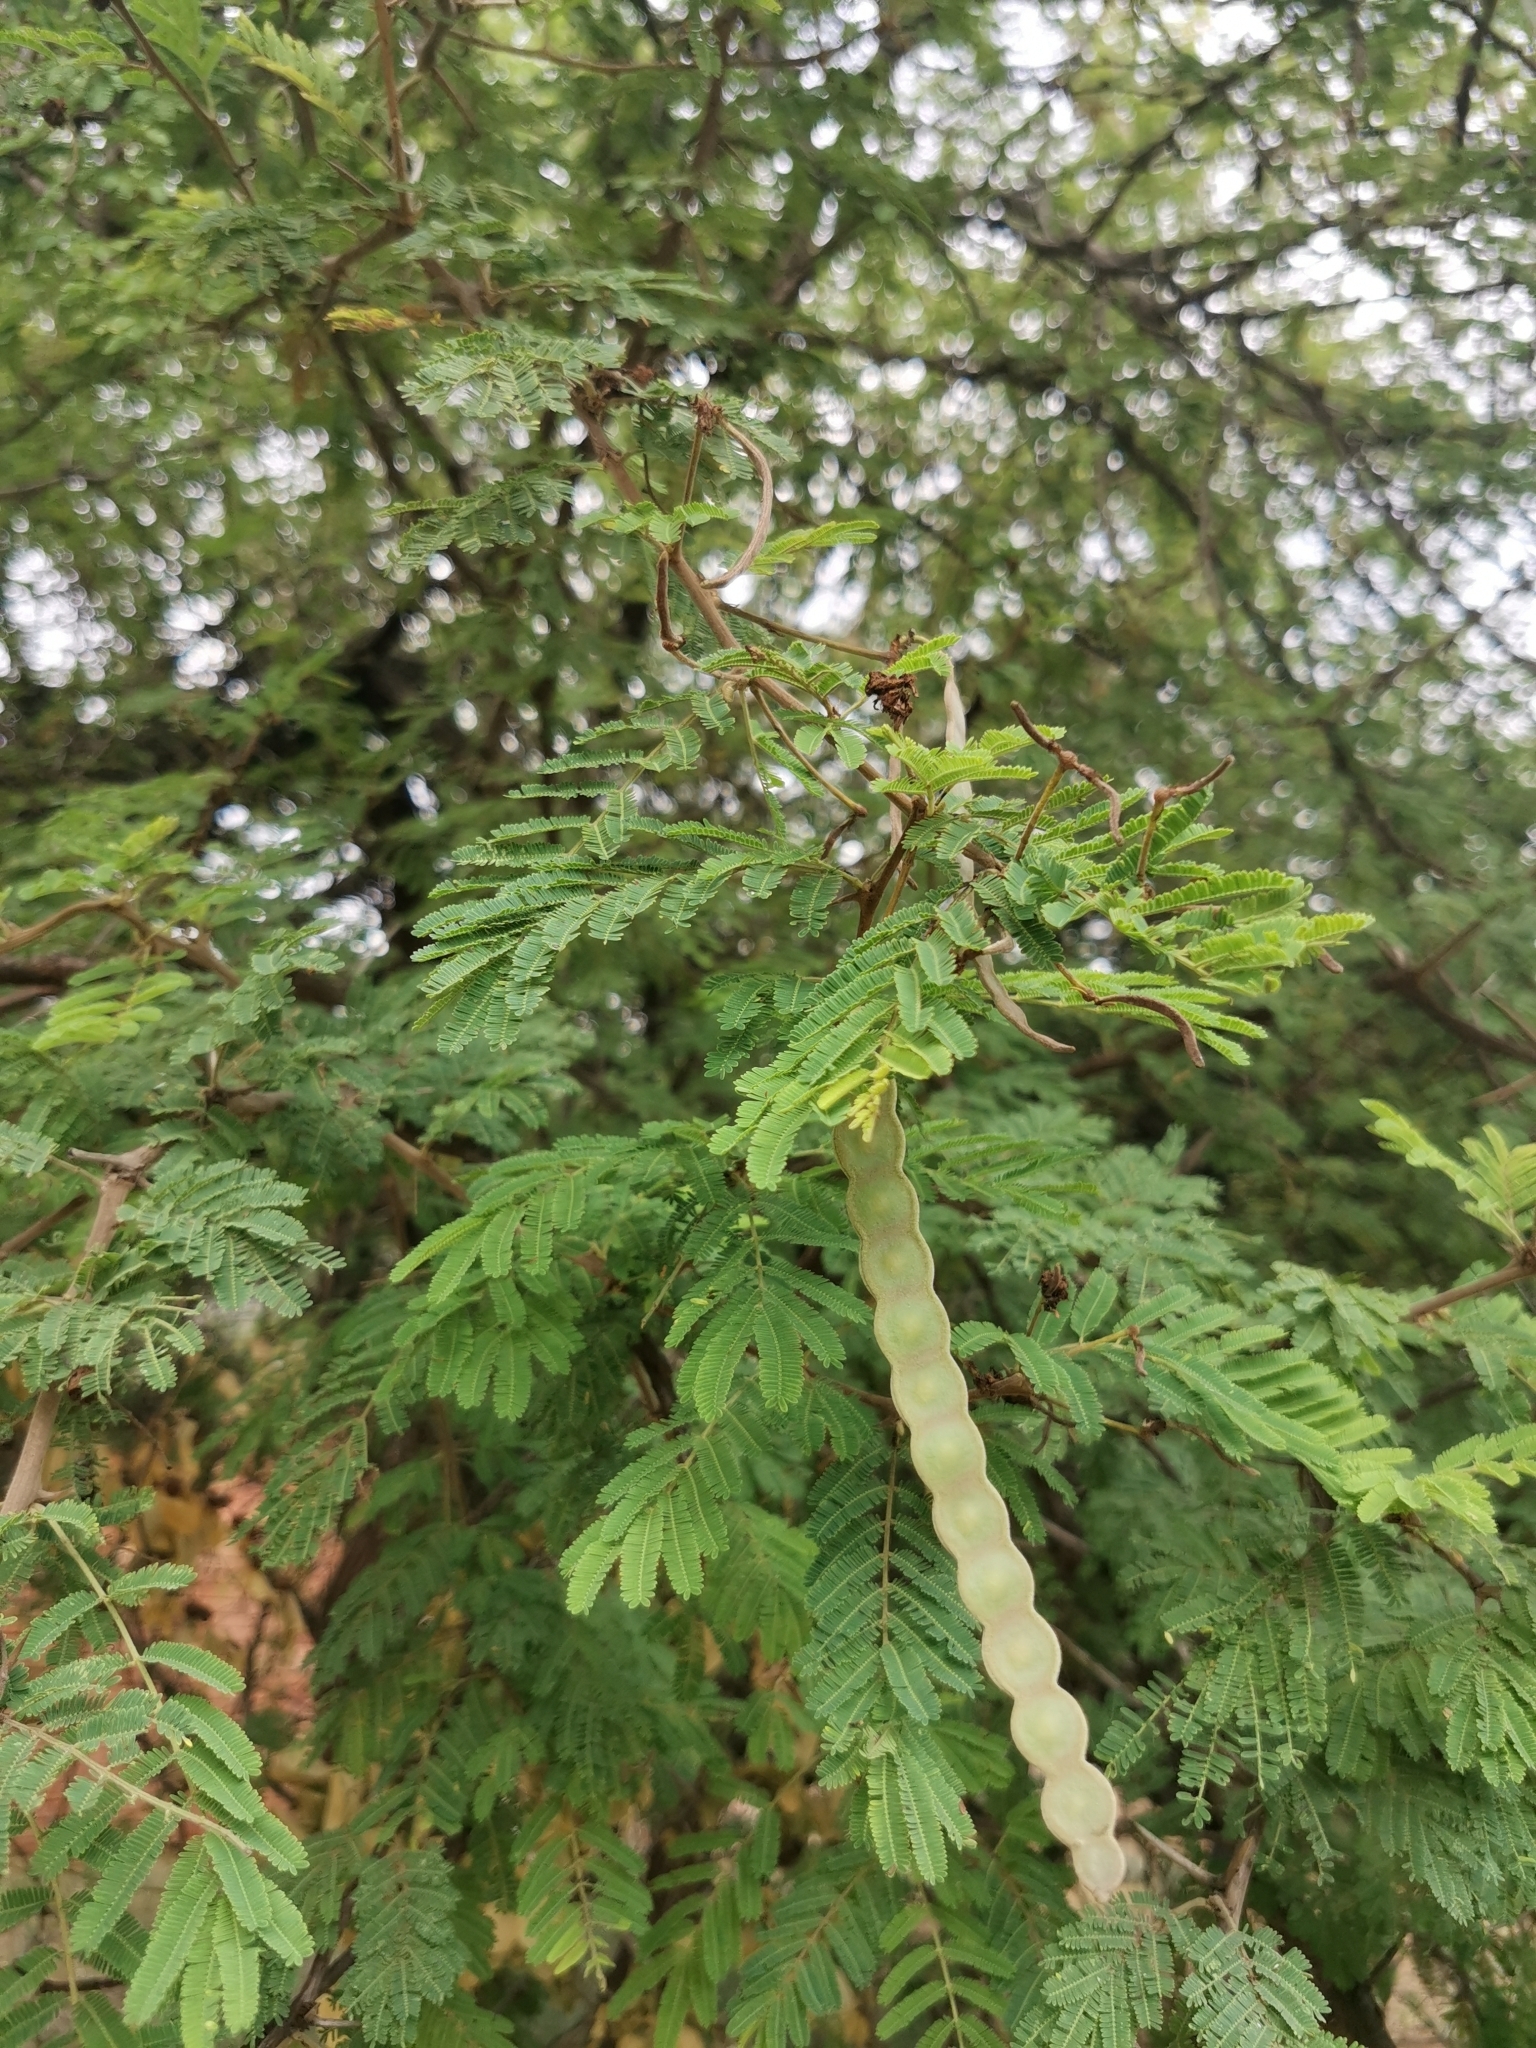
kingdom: Plantae
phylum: Tracheophyta
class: Magnoliopsida
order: Fabales
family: Fabaceae
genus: Vachellia
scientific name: Vachellia nilotica
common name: Arabic gumtree
